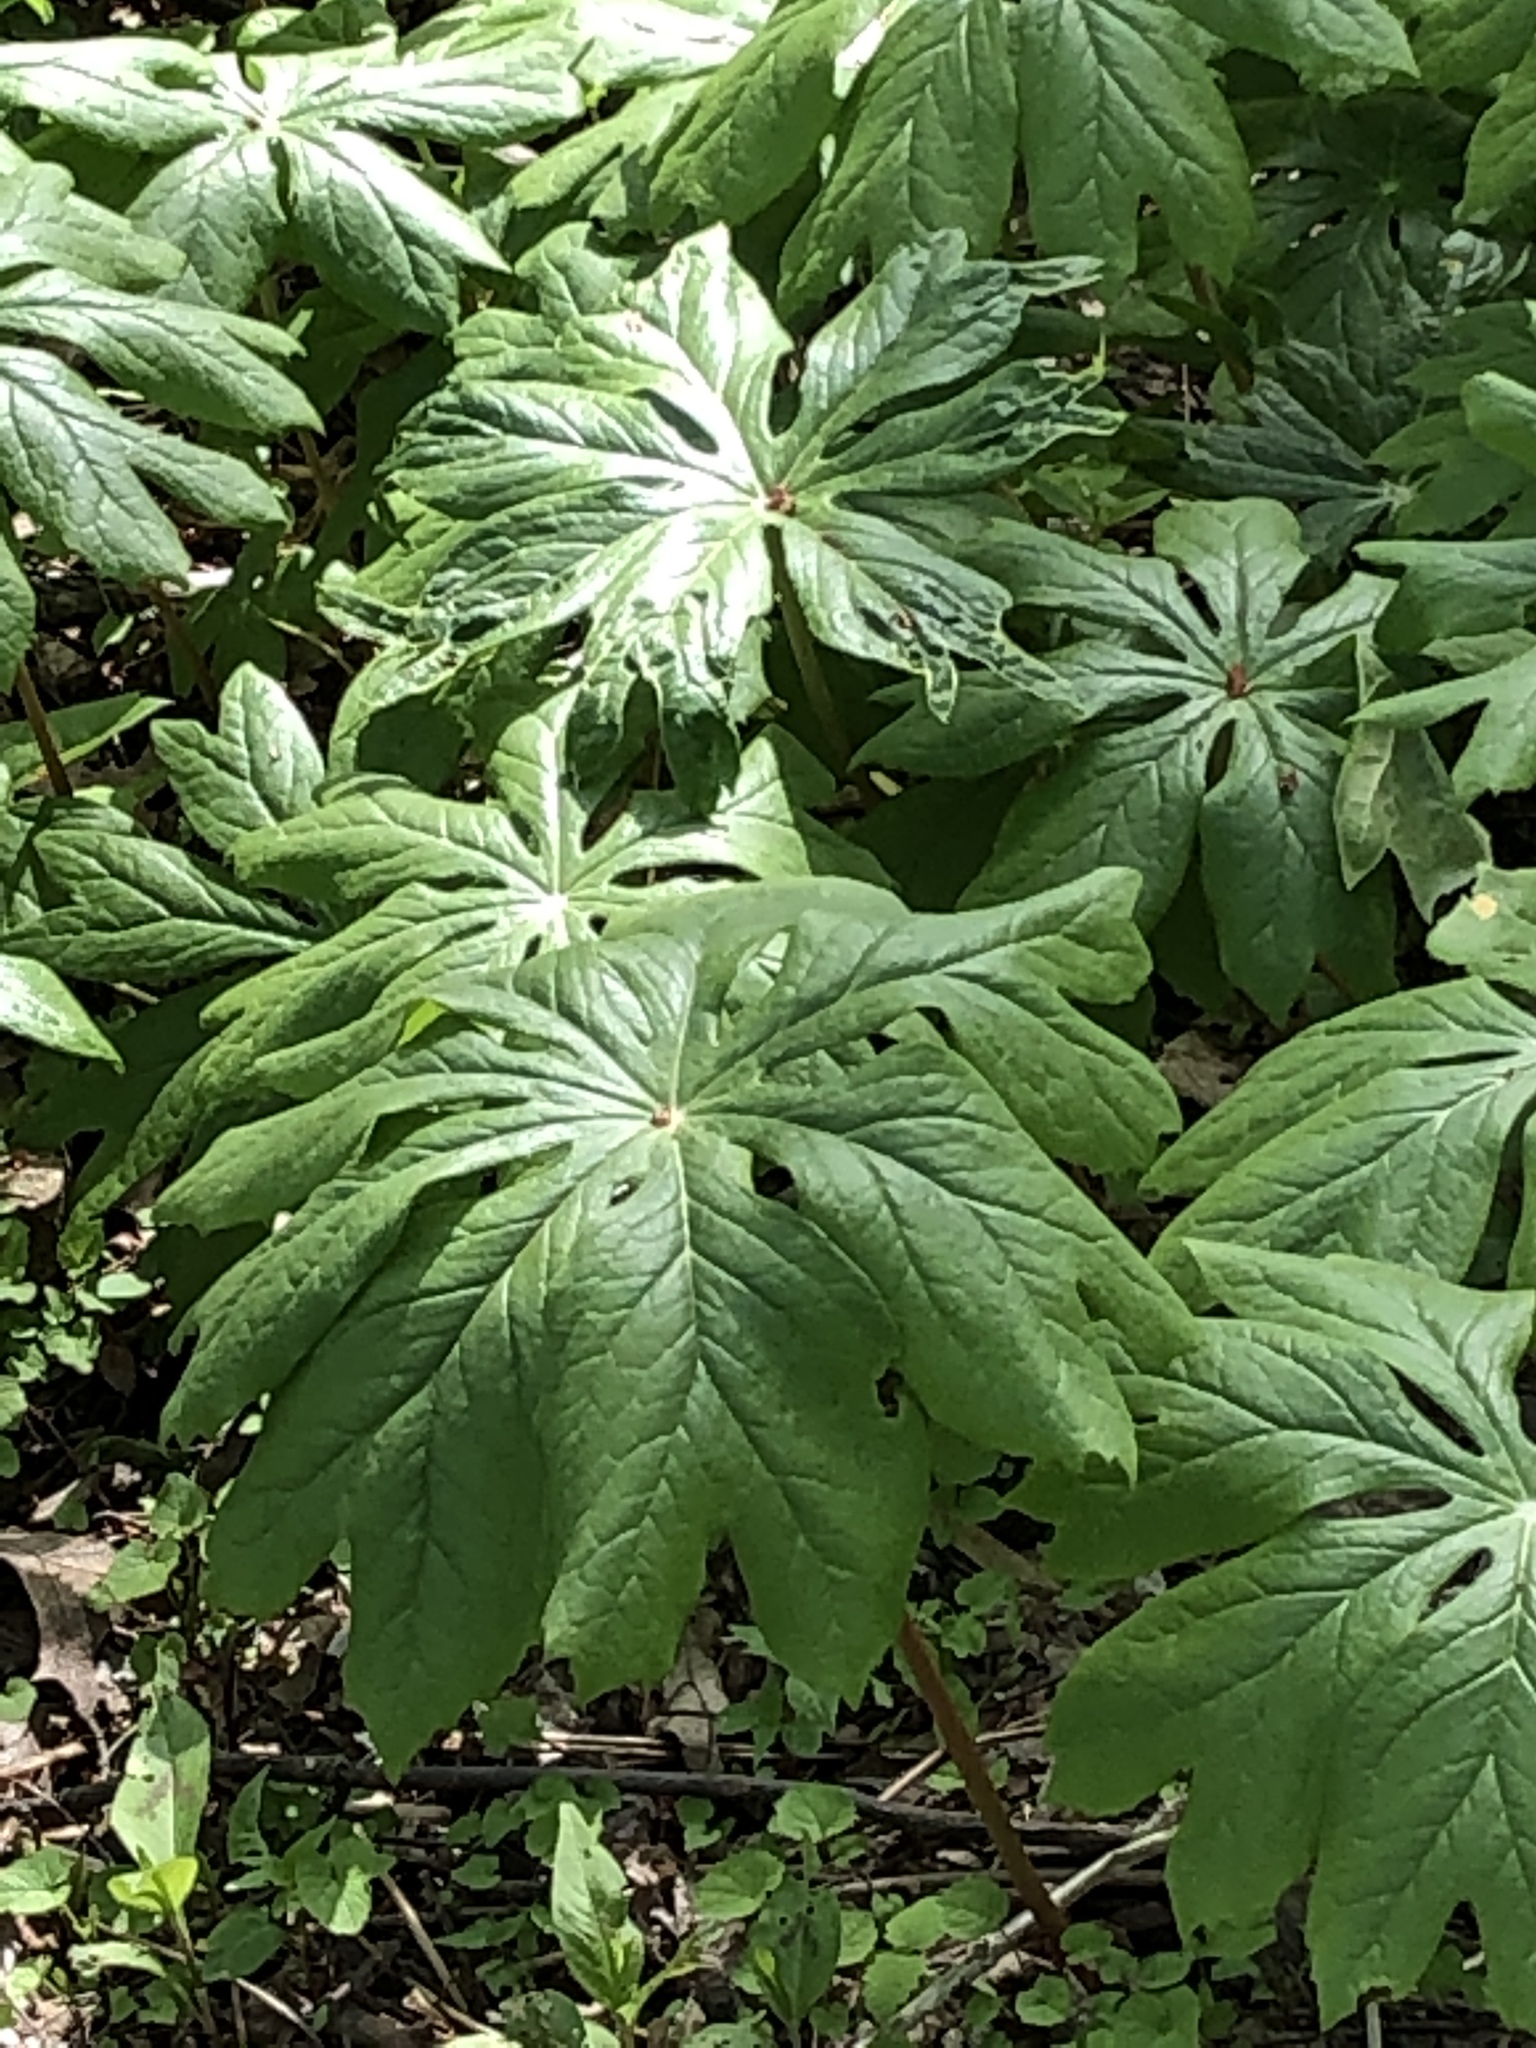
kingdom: Plantae
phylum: Tracheophyta
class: Magnoliopsida
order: Ranunculales
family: Berberidaceae
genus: Podophyllum
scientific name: Podophyllum peltatum
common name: Wild mandrake
